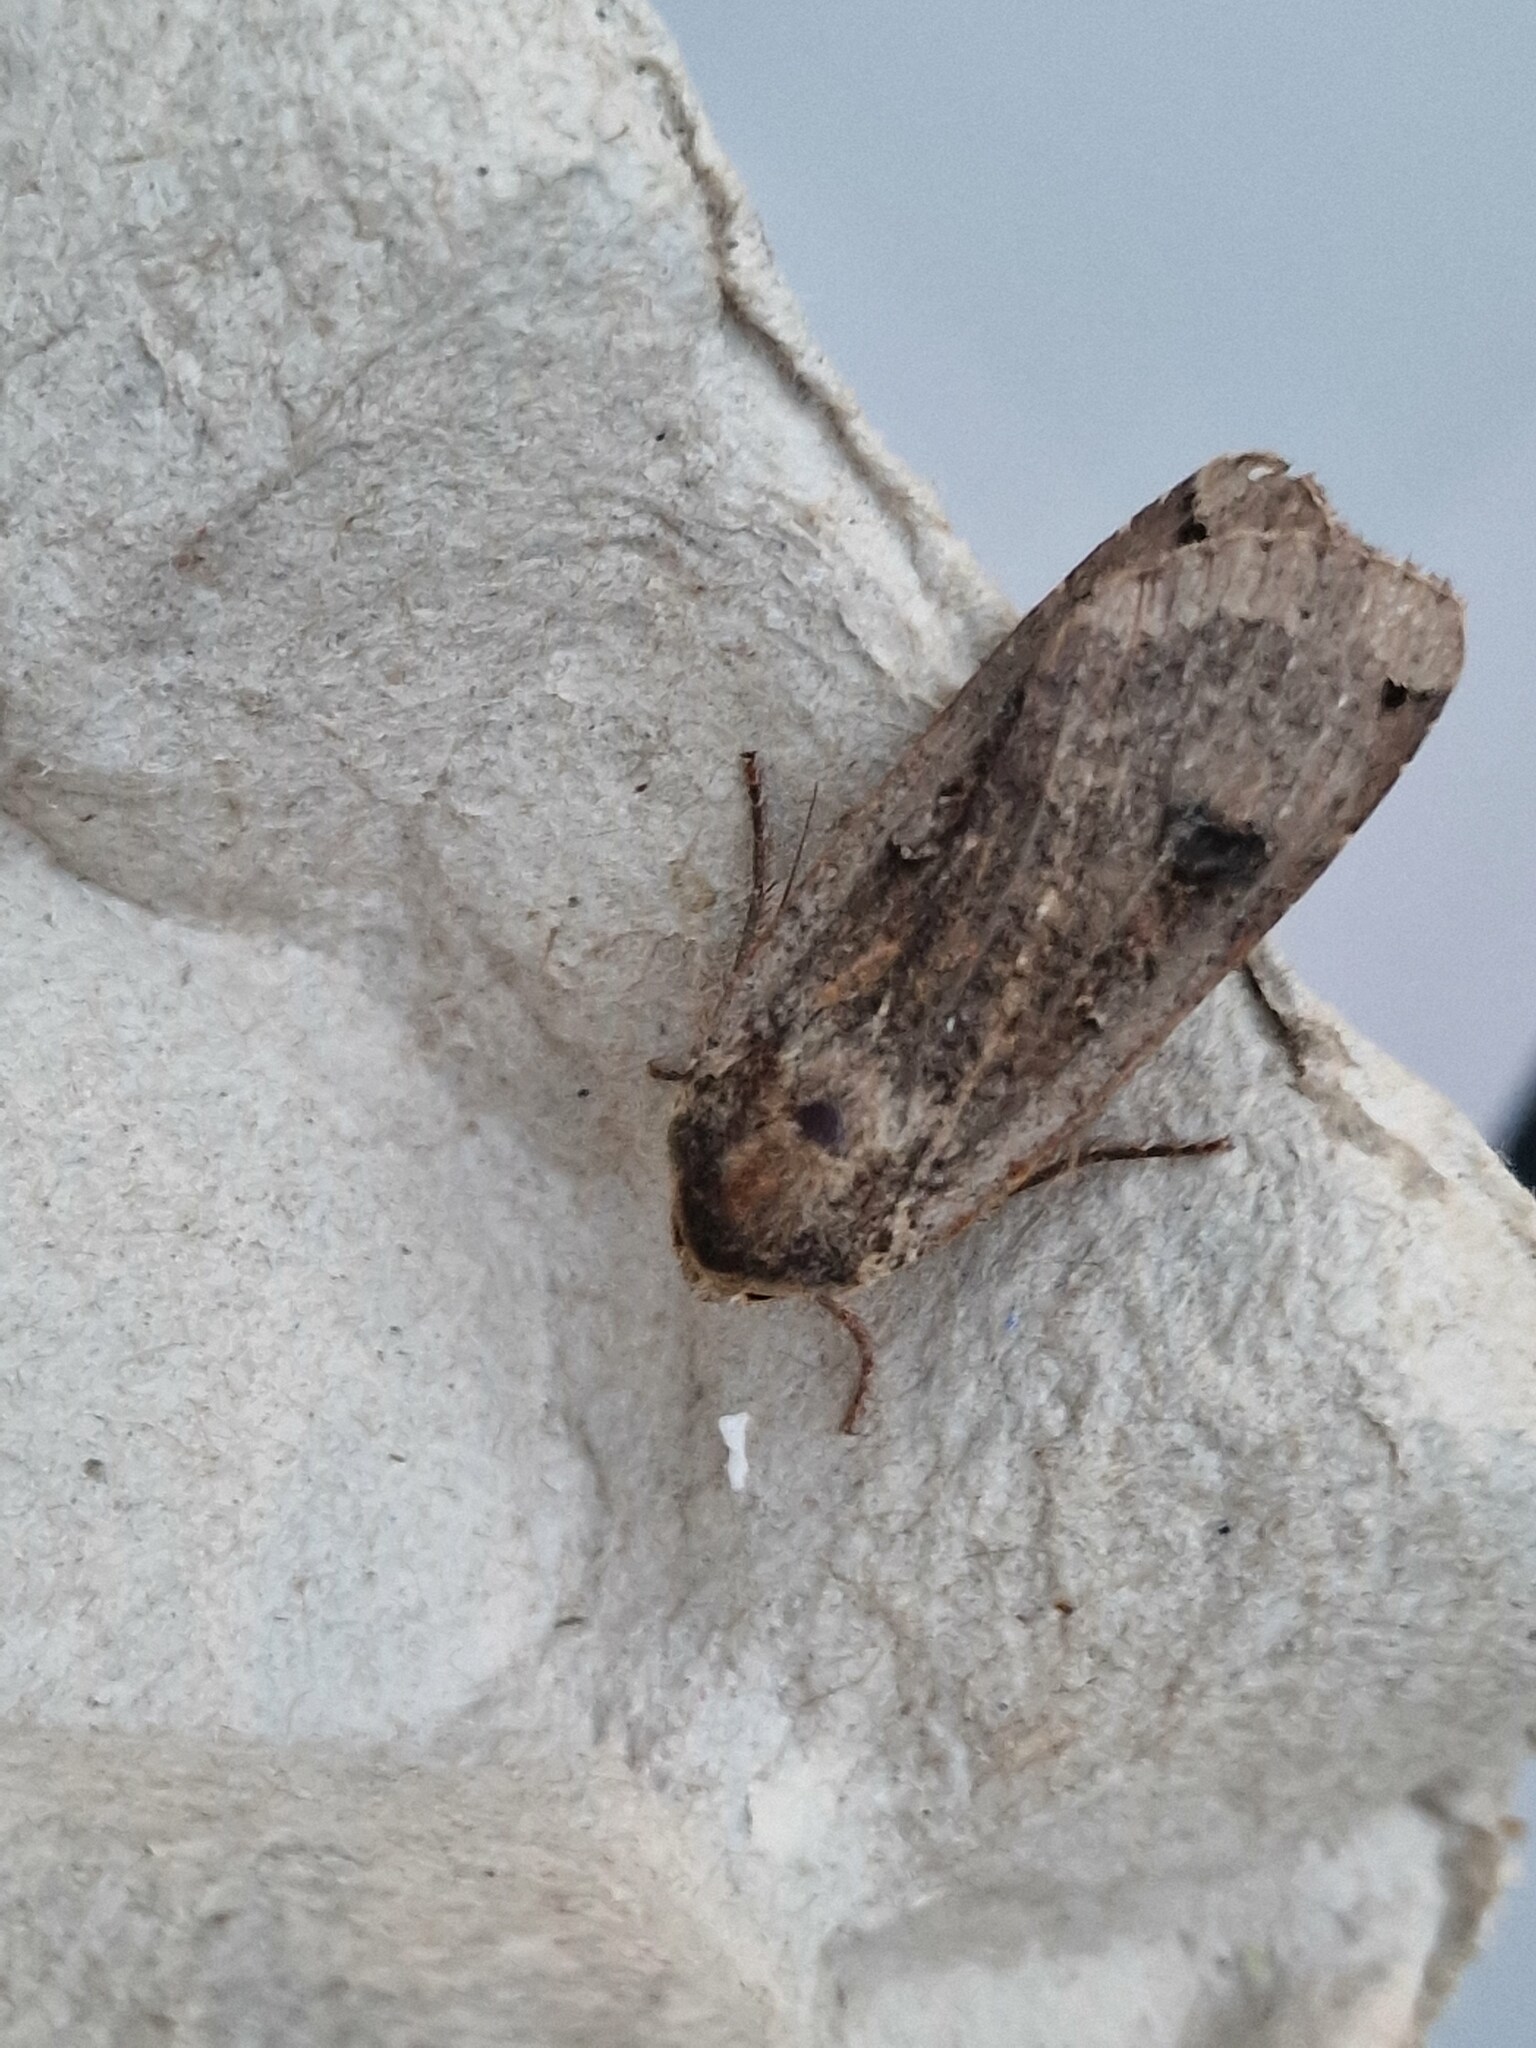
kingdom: Animalia
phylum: Arthropoda
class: Insecta
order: Lepidoptera
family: Noctuidae
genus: Noctua
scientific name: Noctua pronuba
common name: Large yellow underwing
